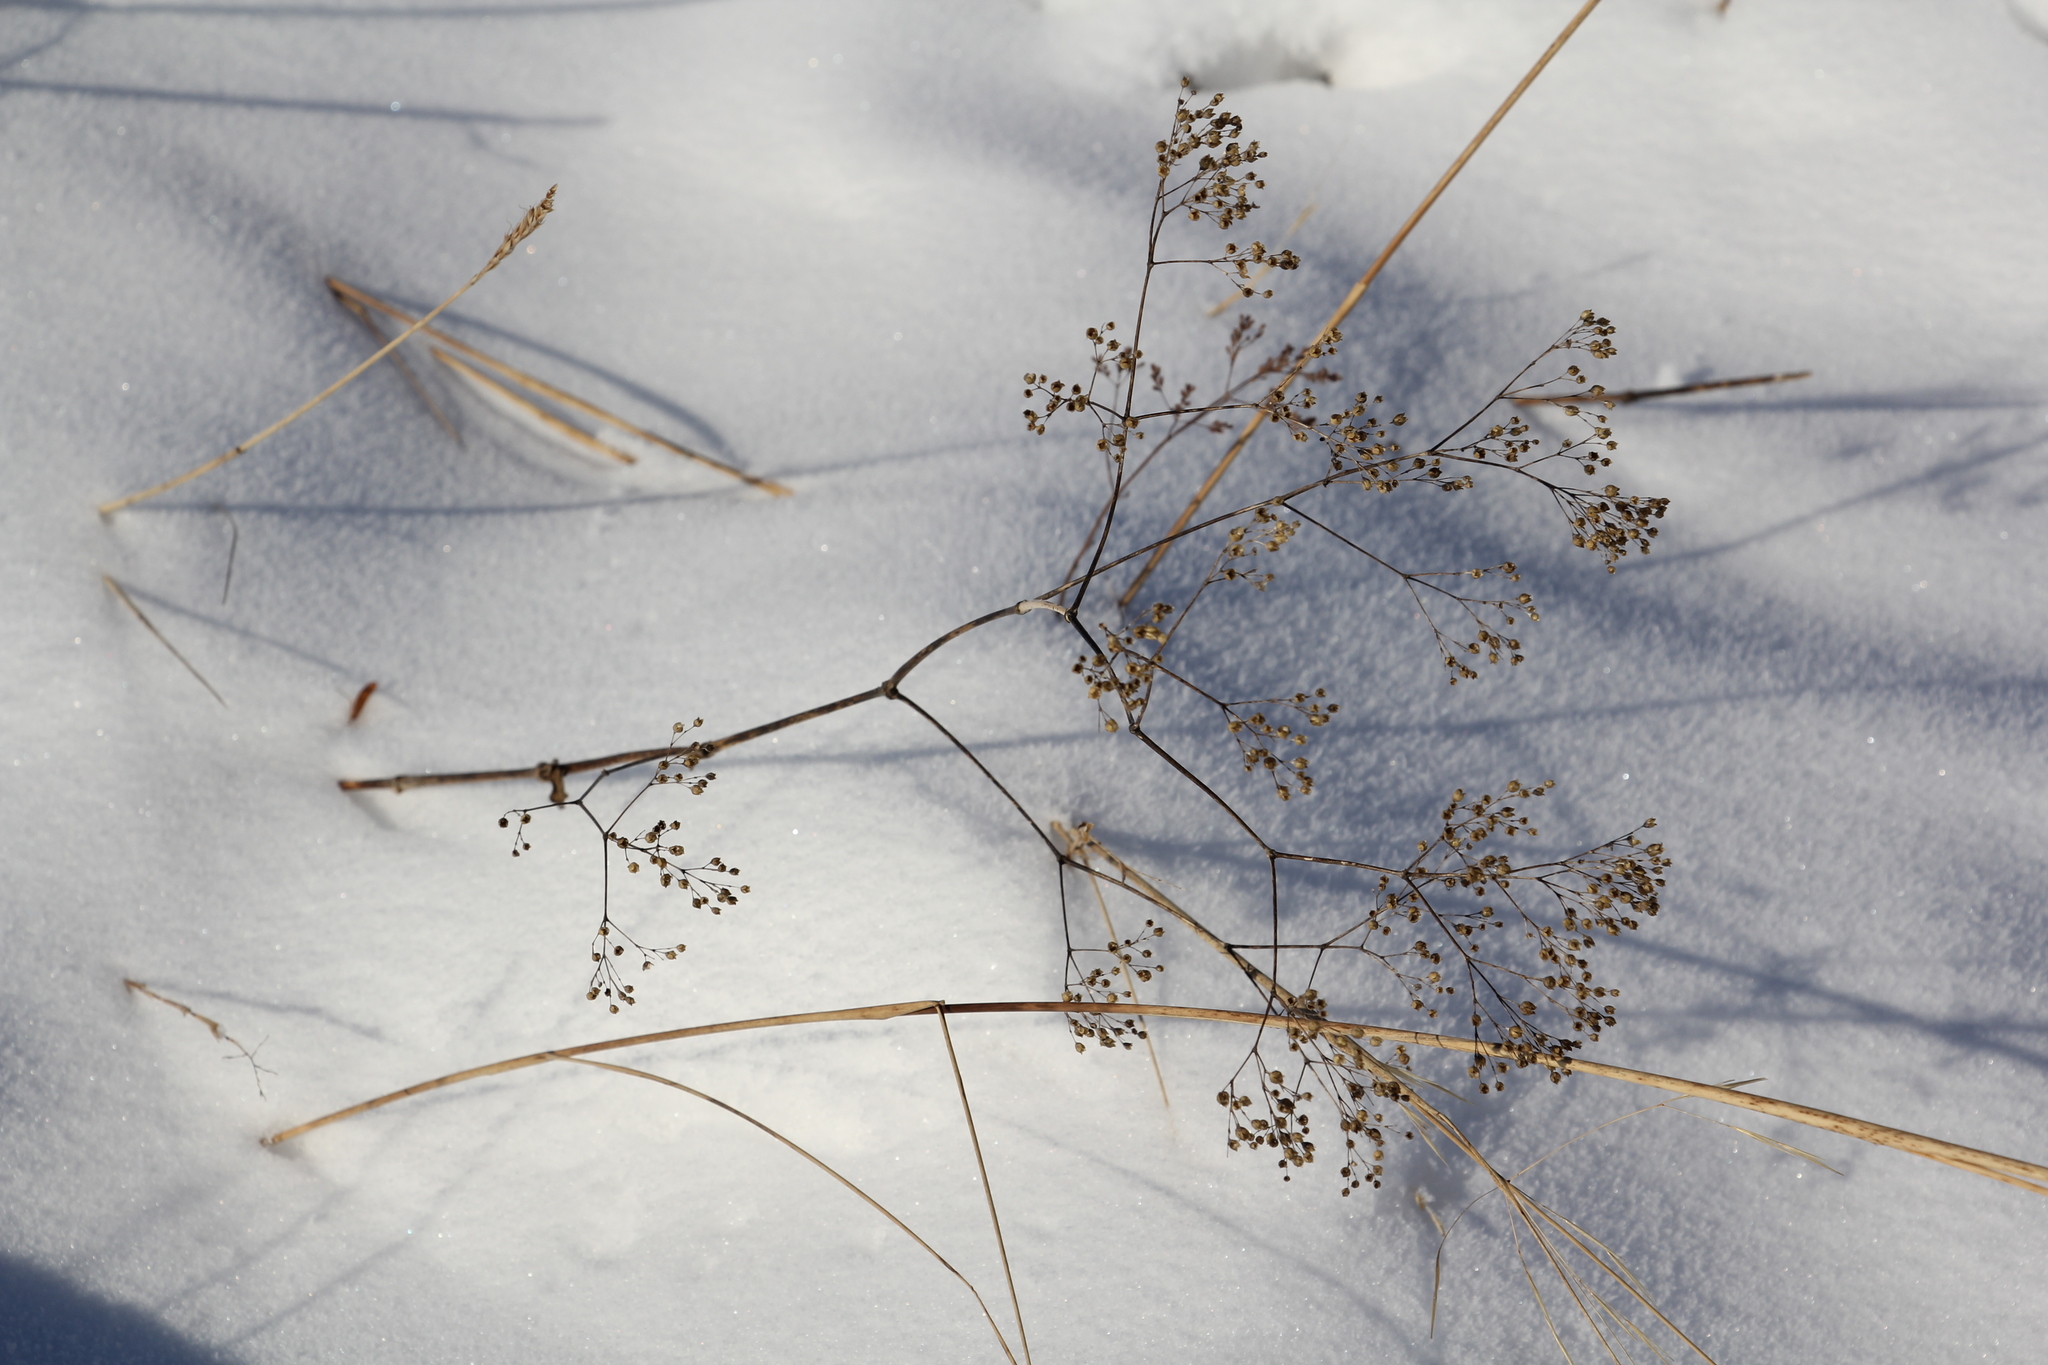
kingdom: Plantae
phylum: Tracheophyta
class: Magnoliopsida
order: Caryophyllales
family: Caryophyllaceae
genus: Gypsophila
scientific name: Gypsophila altissima
